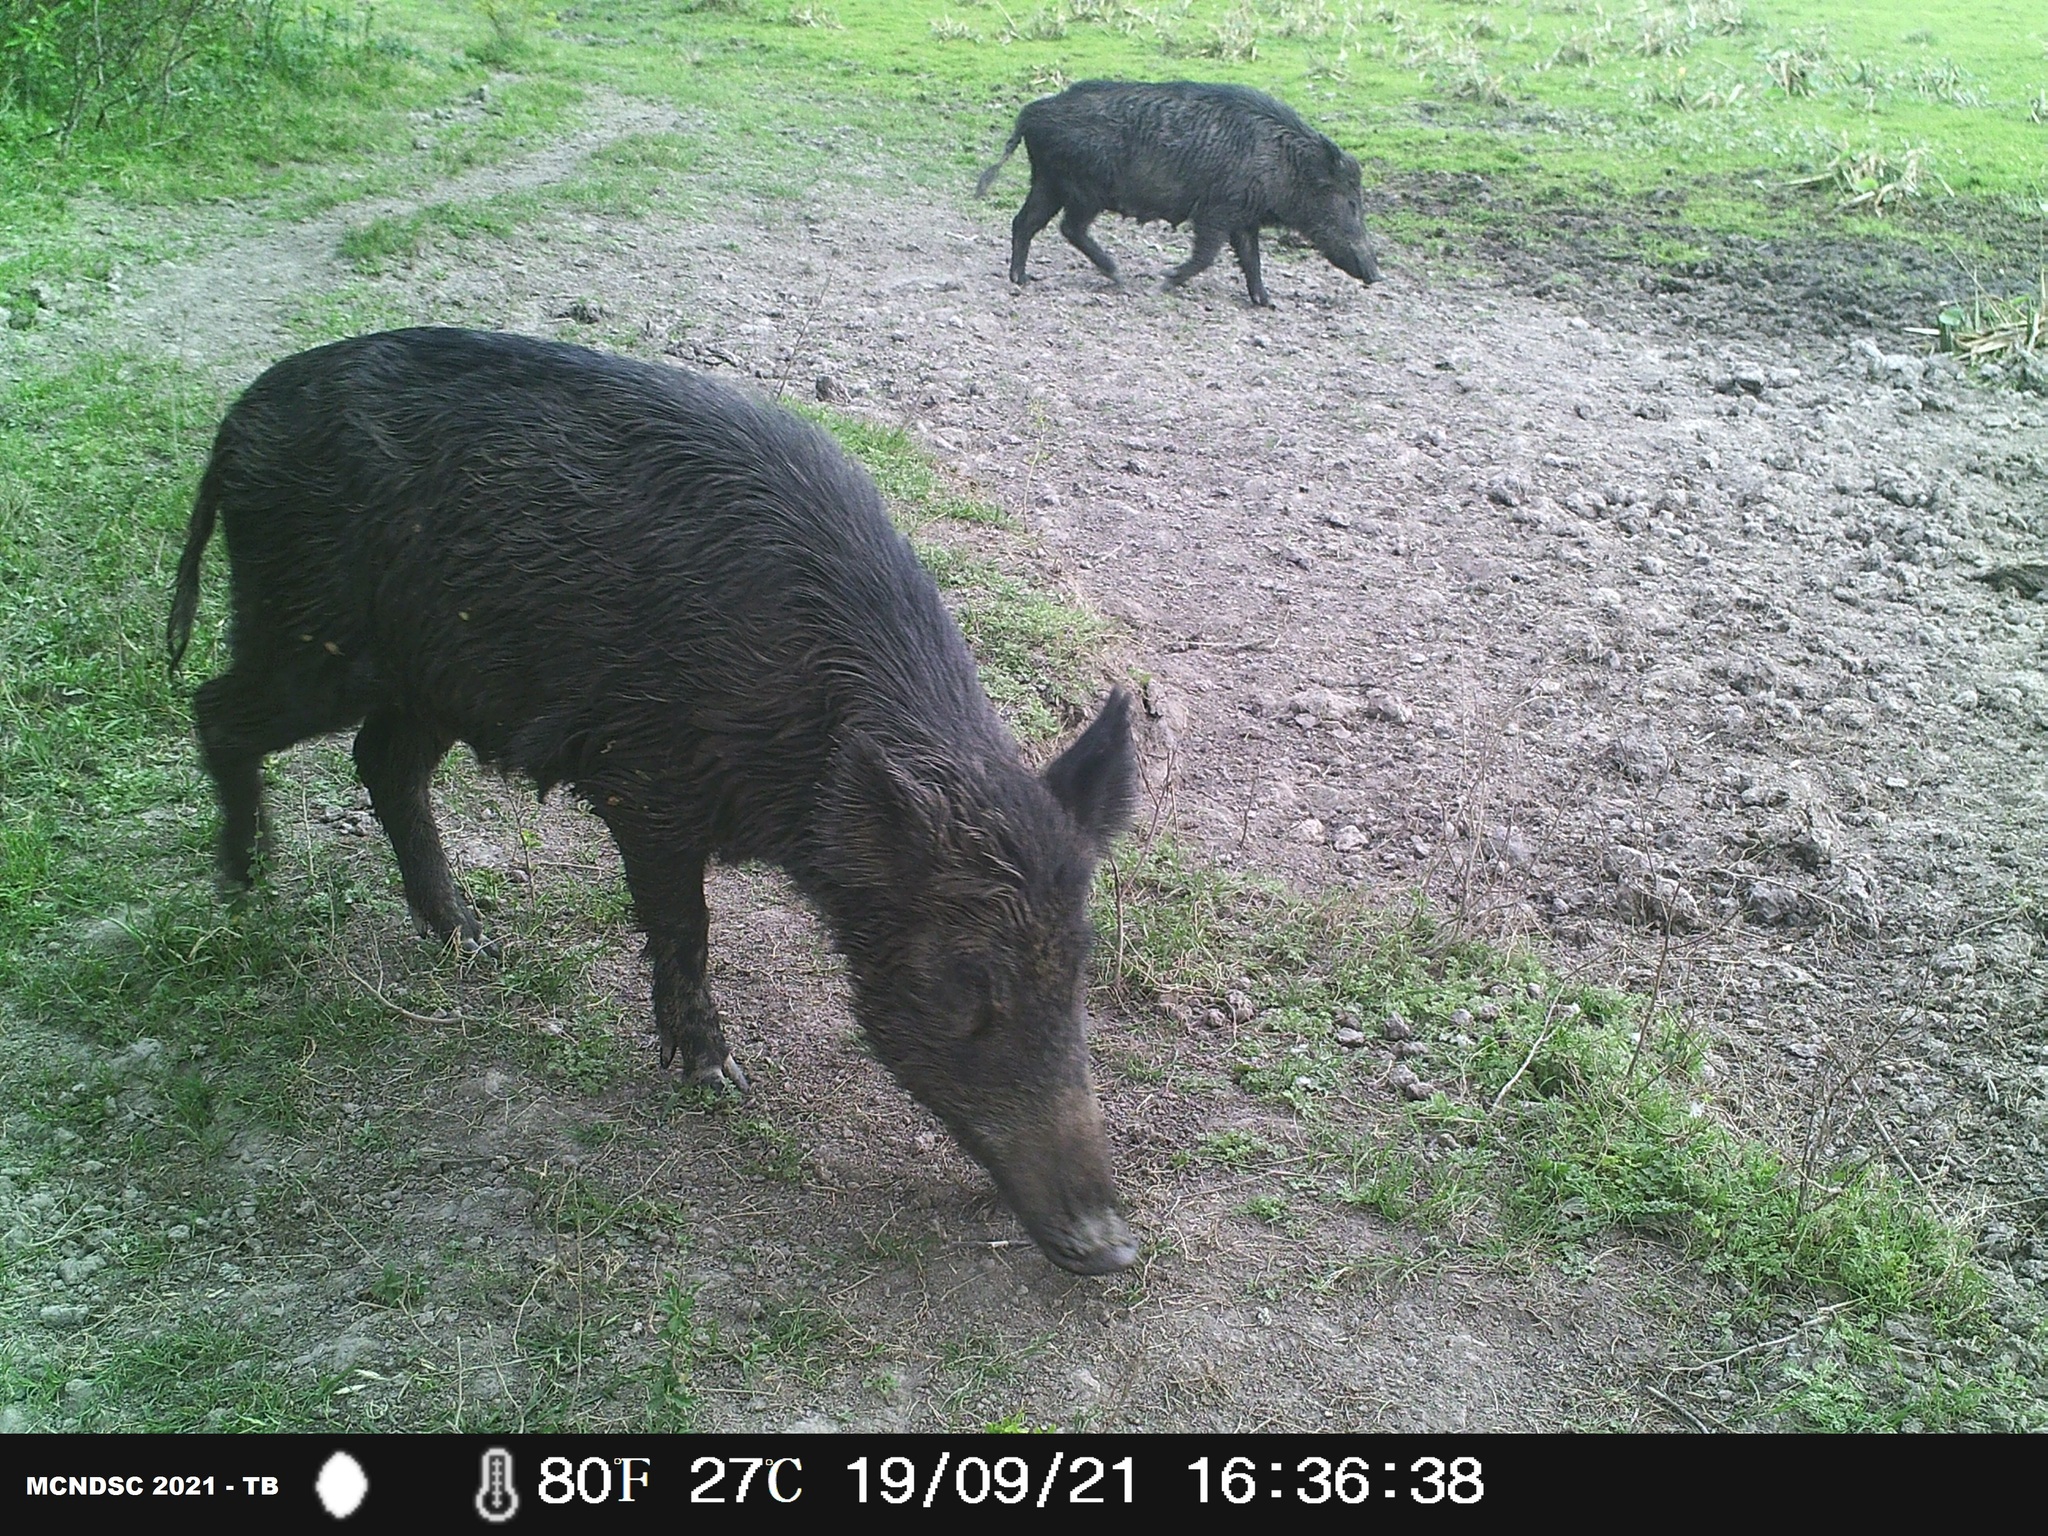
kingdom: Animalia
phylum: Chordata
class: Mammalia
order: Artiodactyla
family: Suidae
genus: Sus
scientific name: Sus scrofa
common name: Wild boar
